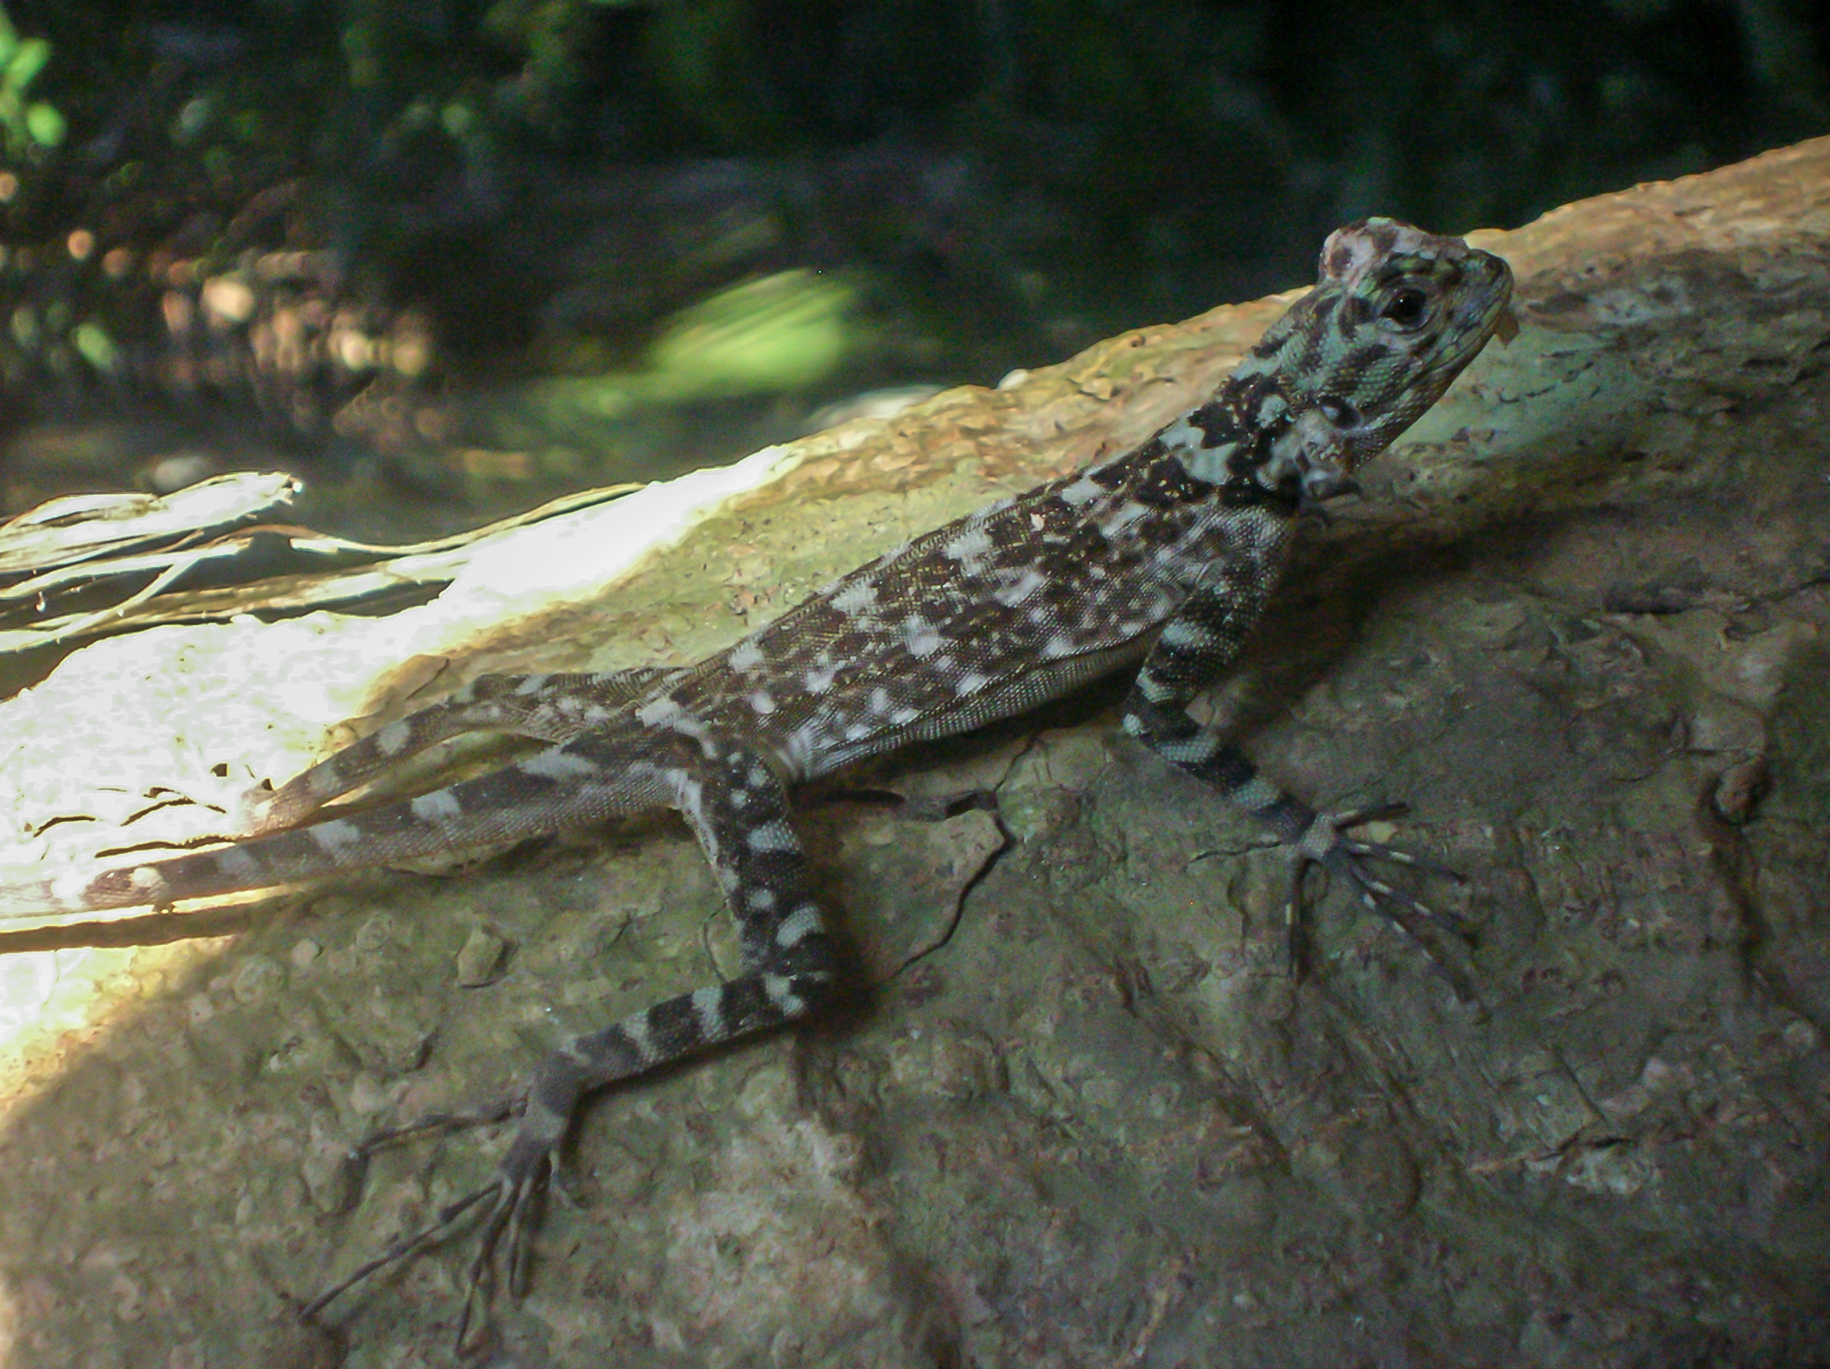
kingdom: Animalia
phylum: Chordata
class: Squamata
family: Tropiduridae
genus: Plica
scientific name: Plica plica
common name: Tree runner
